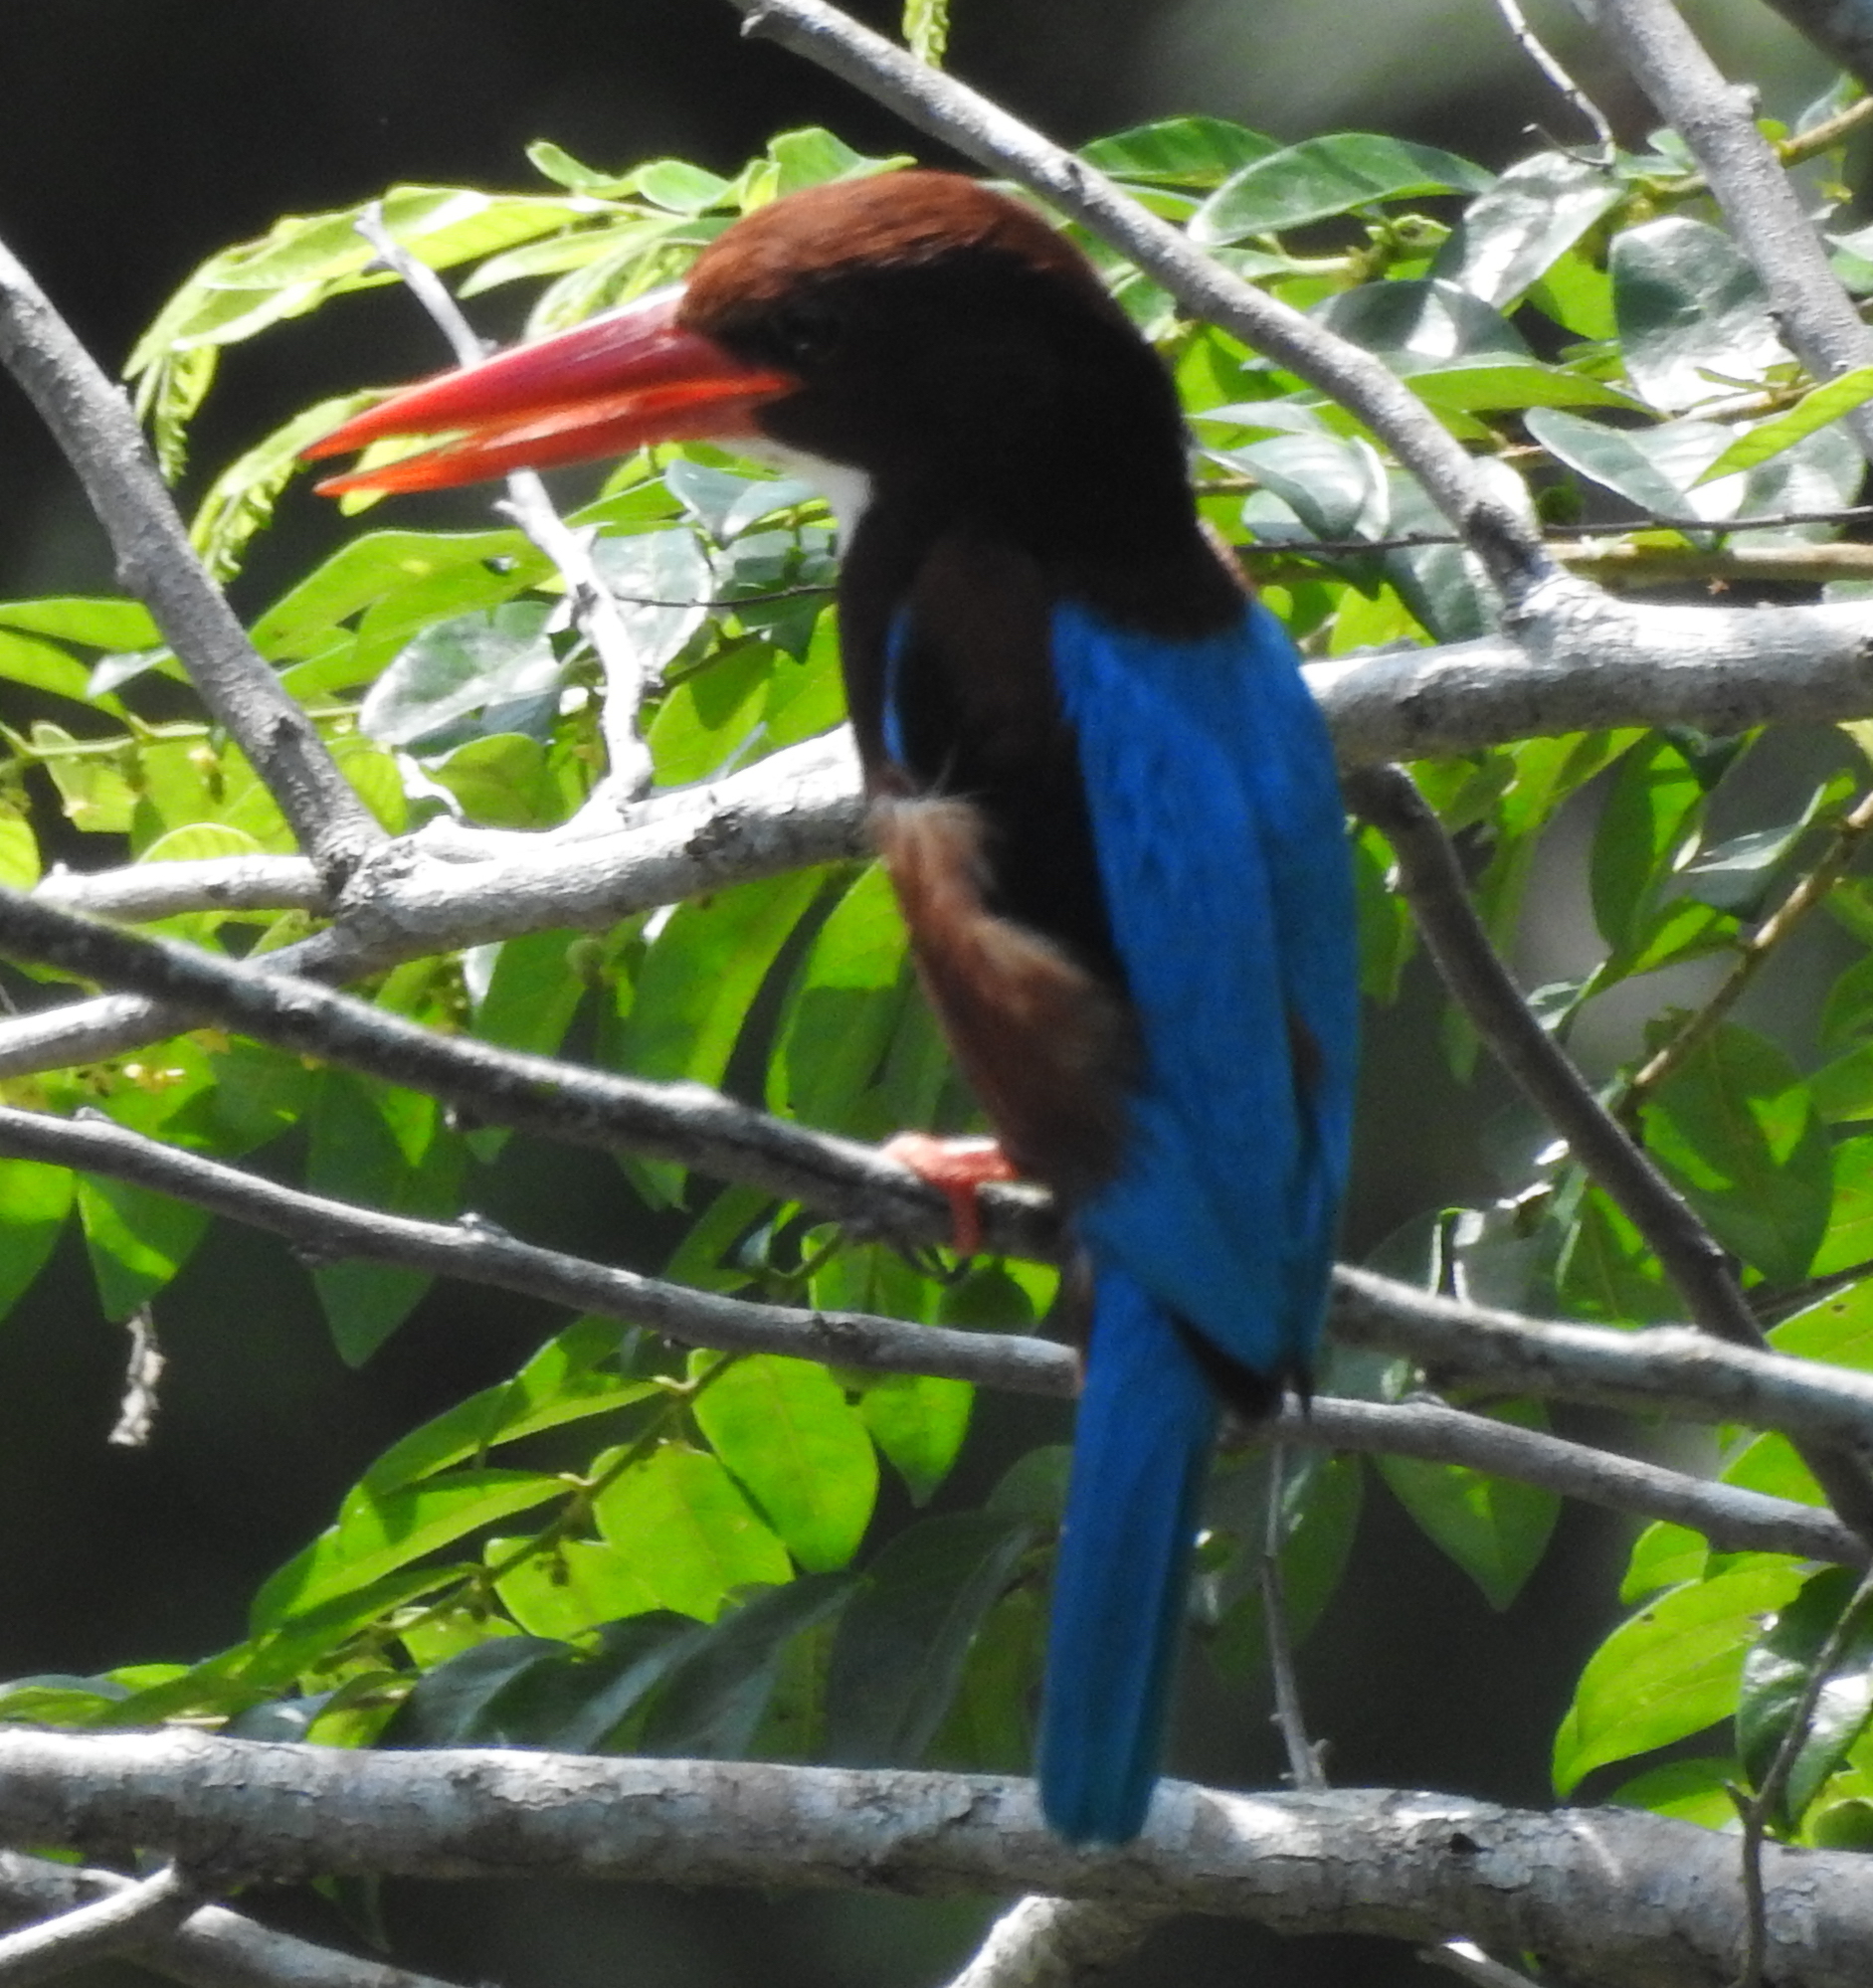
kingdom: Animalia
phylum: Chordata
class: Aves
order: Coraciiformes
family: Alcedinidae
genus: Halcyon
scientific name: Halcyon smyrnensis
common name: White-throated kingfisher
